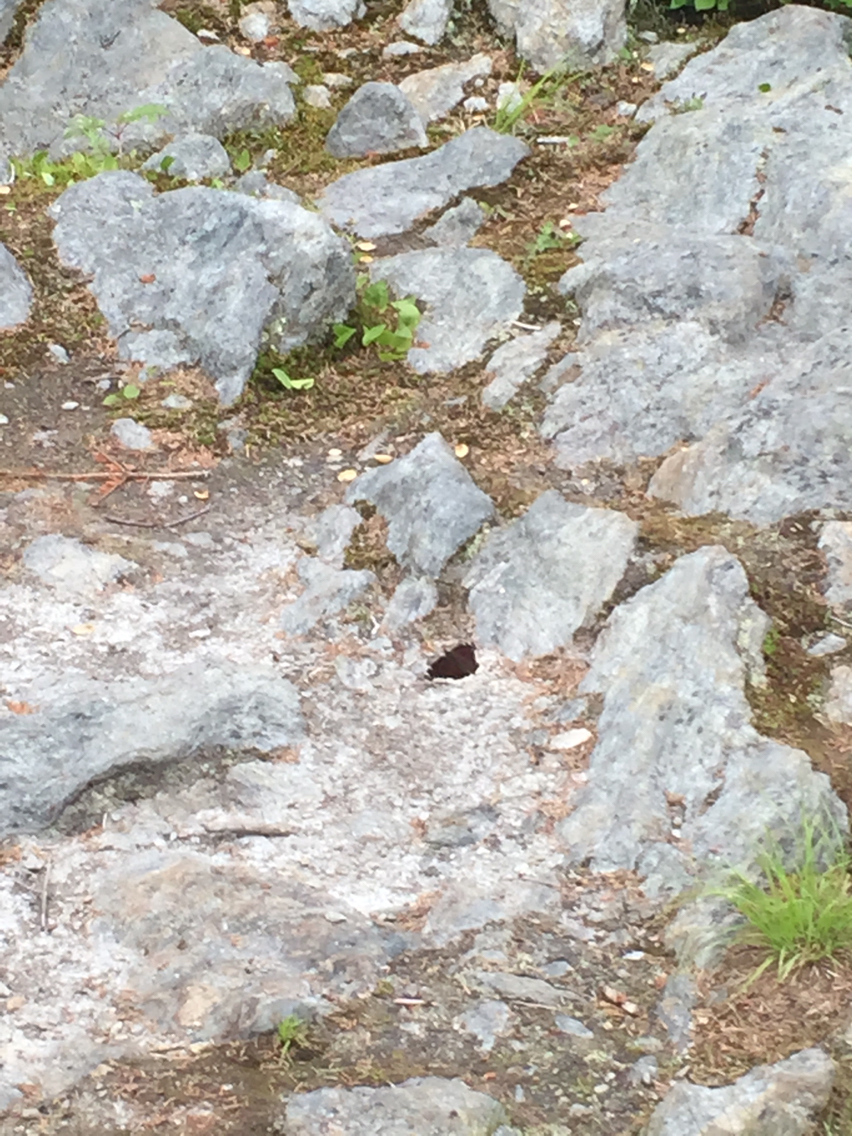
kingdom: Animalia
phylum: Arthropoda
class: Insecta
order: Lepidoptera
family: Nymphalidae
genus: Nymphalis
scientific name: Nymphalis antiopa
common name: Camberwell beauty
